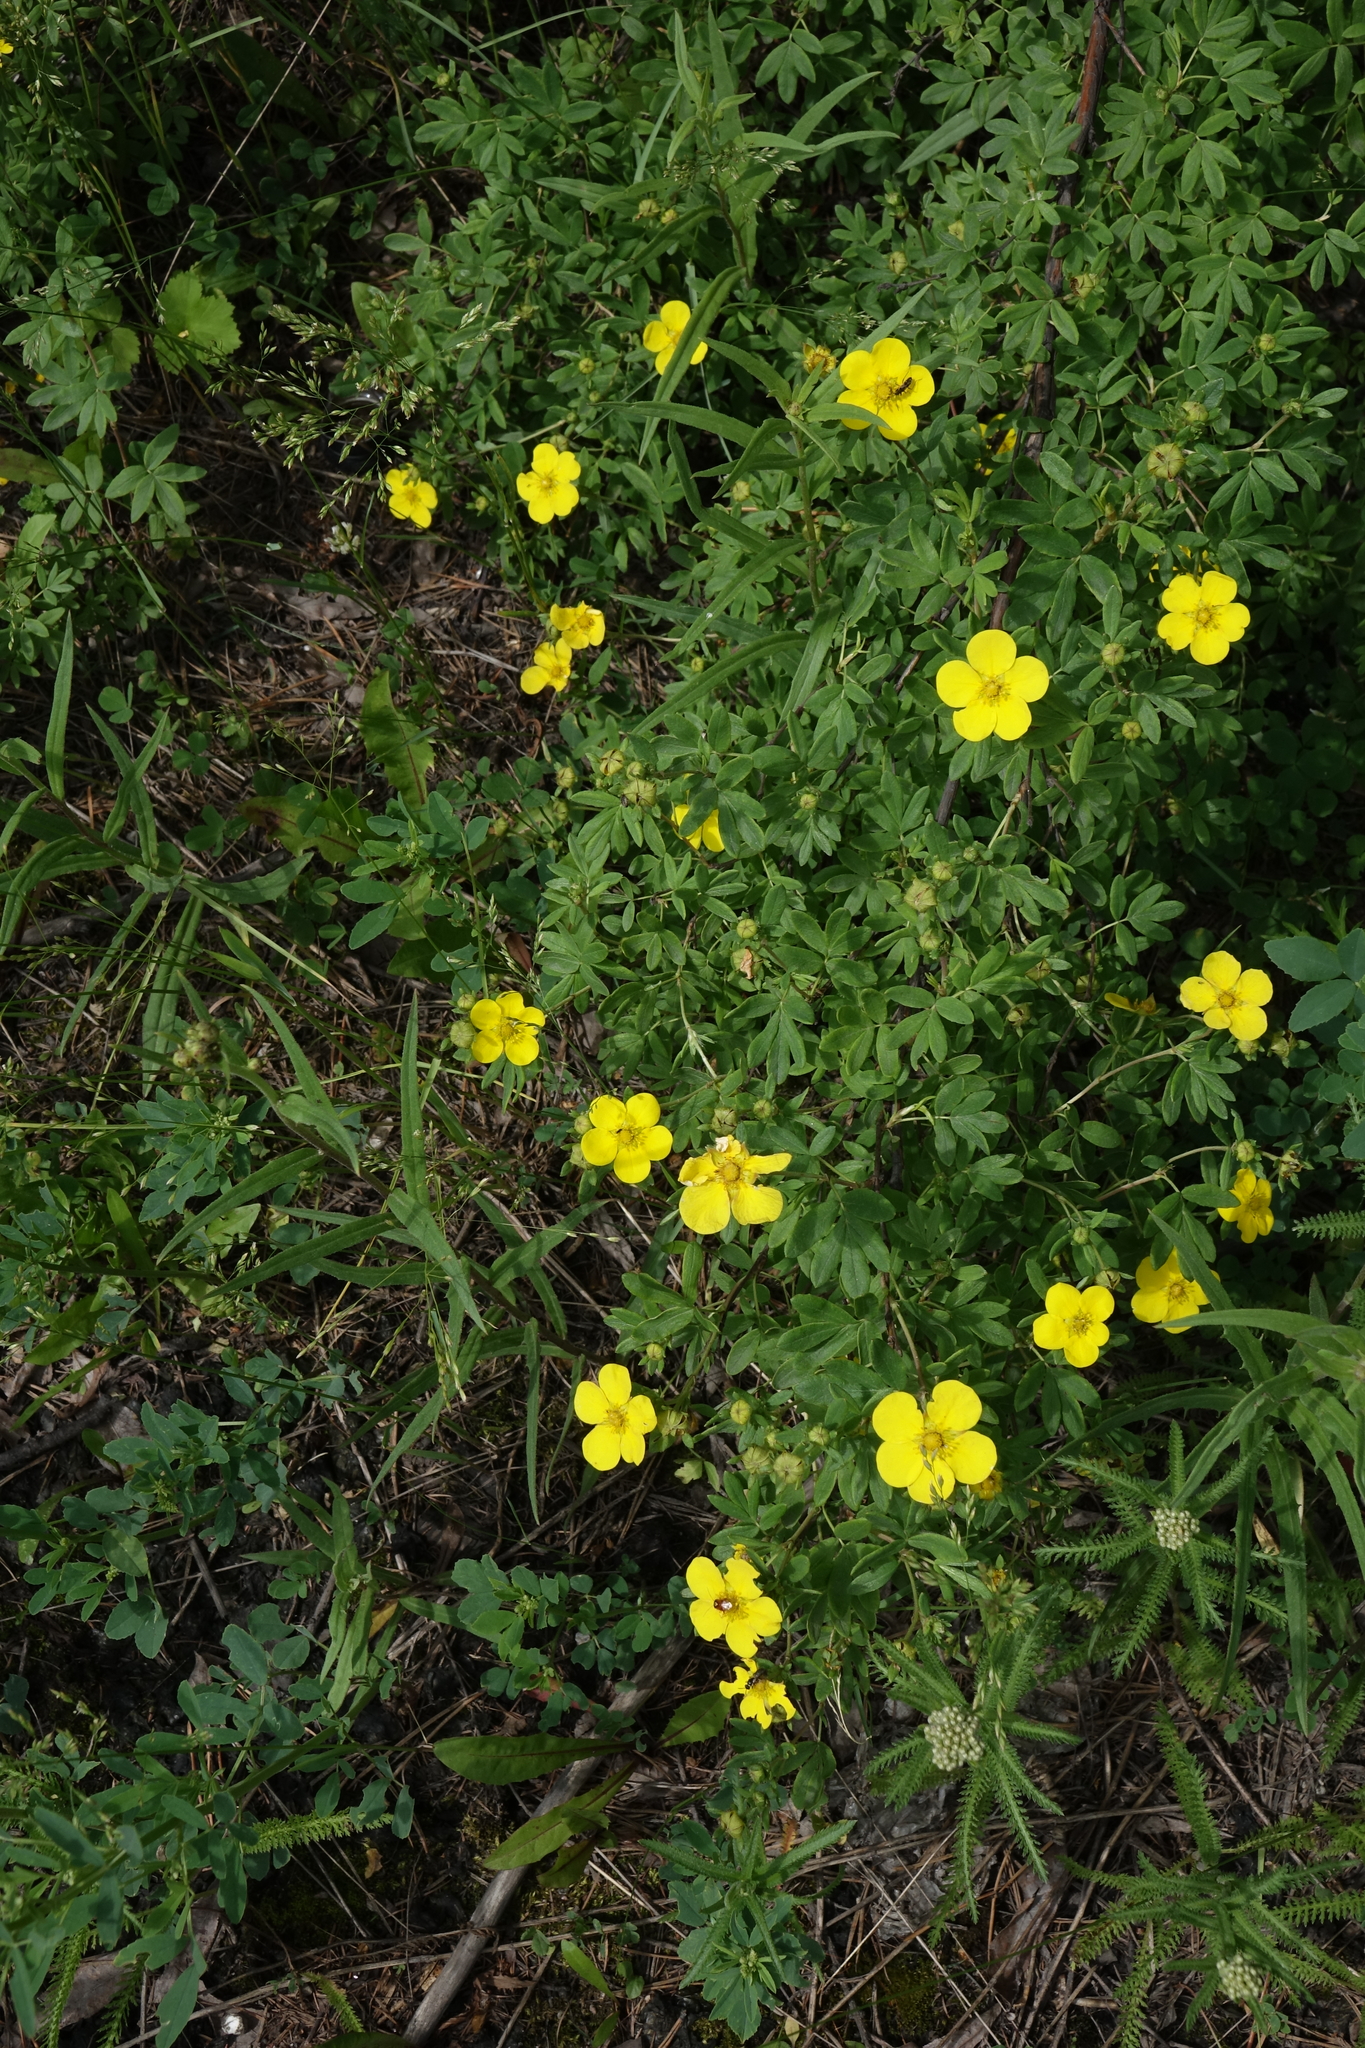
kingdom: Plantae
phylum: Tracheophyta
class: Magnoliopsida
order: Rosales
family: Rosaceae
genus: Dasiphora
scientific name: Dasiphora fruticosa
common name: Shrubby cinquefoil
